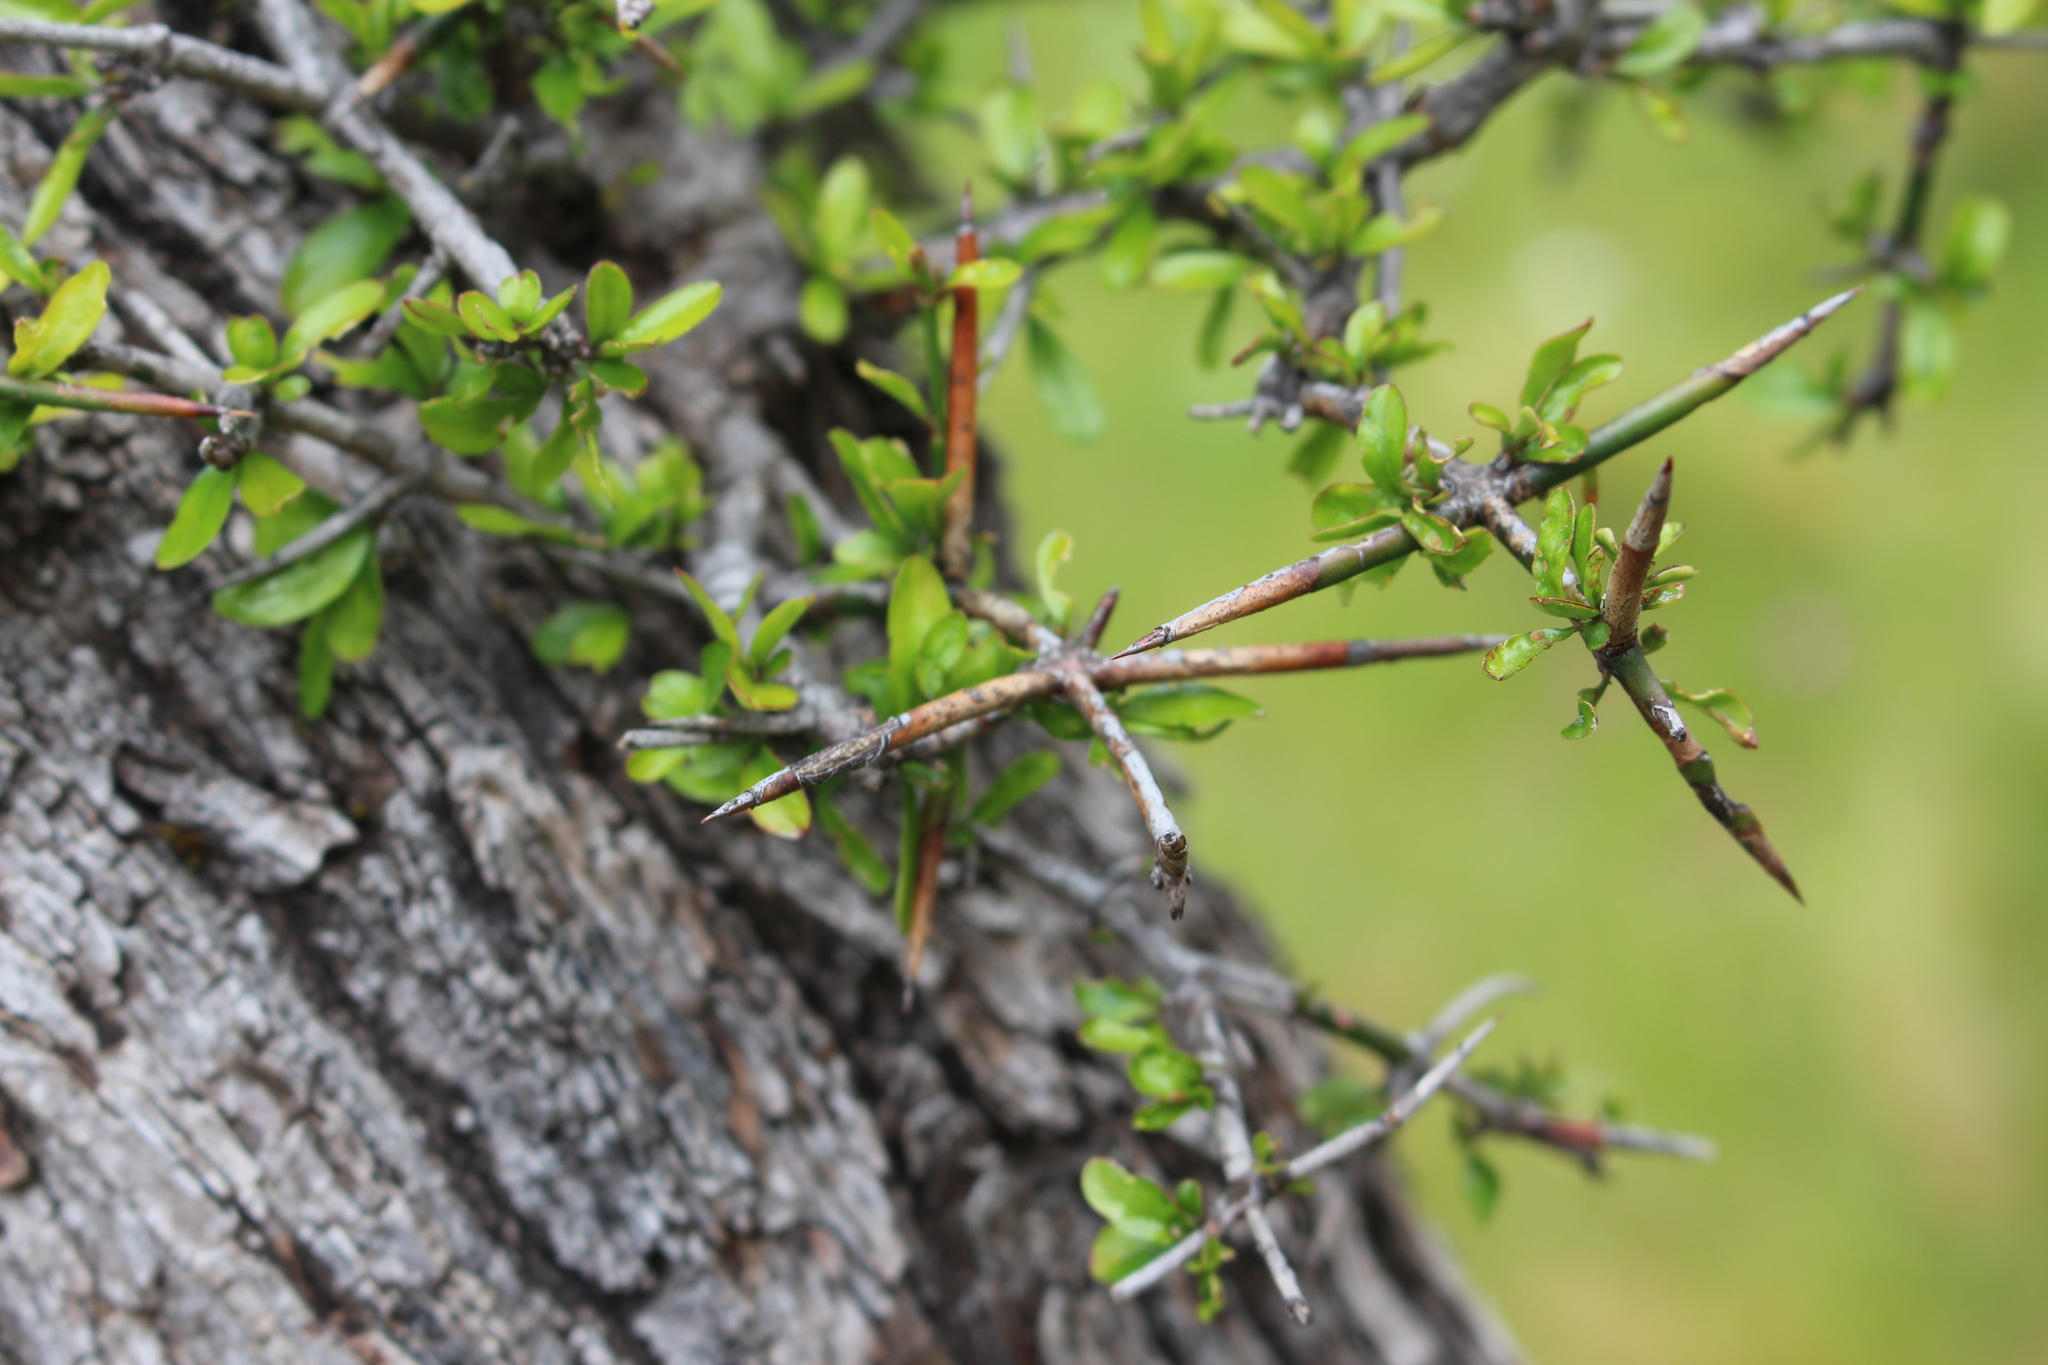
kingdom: Plantae
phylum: Tracheophyta
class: Magnoliopsida
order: Rosales
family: Rhamnaceae
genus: Discaria
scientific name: Discaria toumatou
